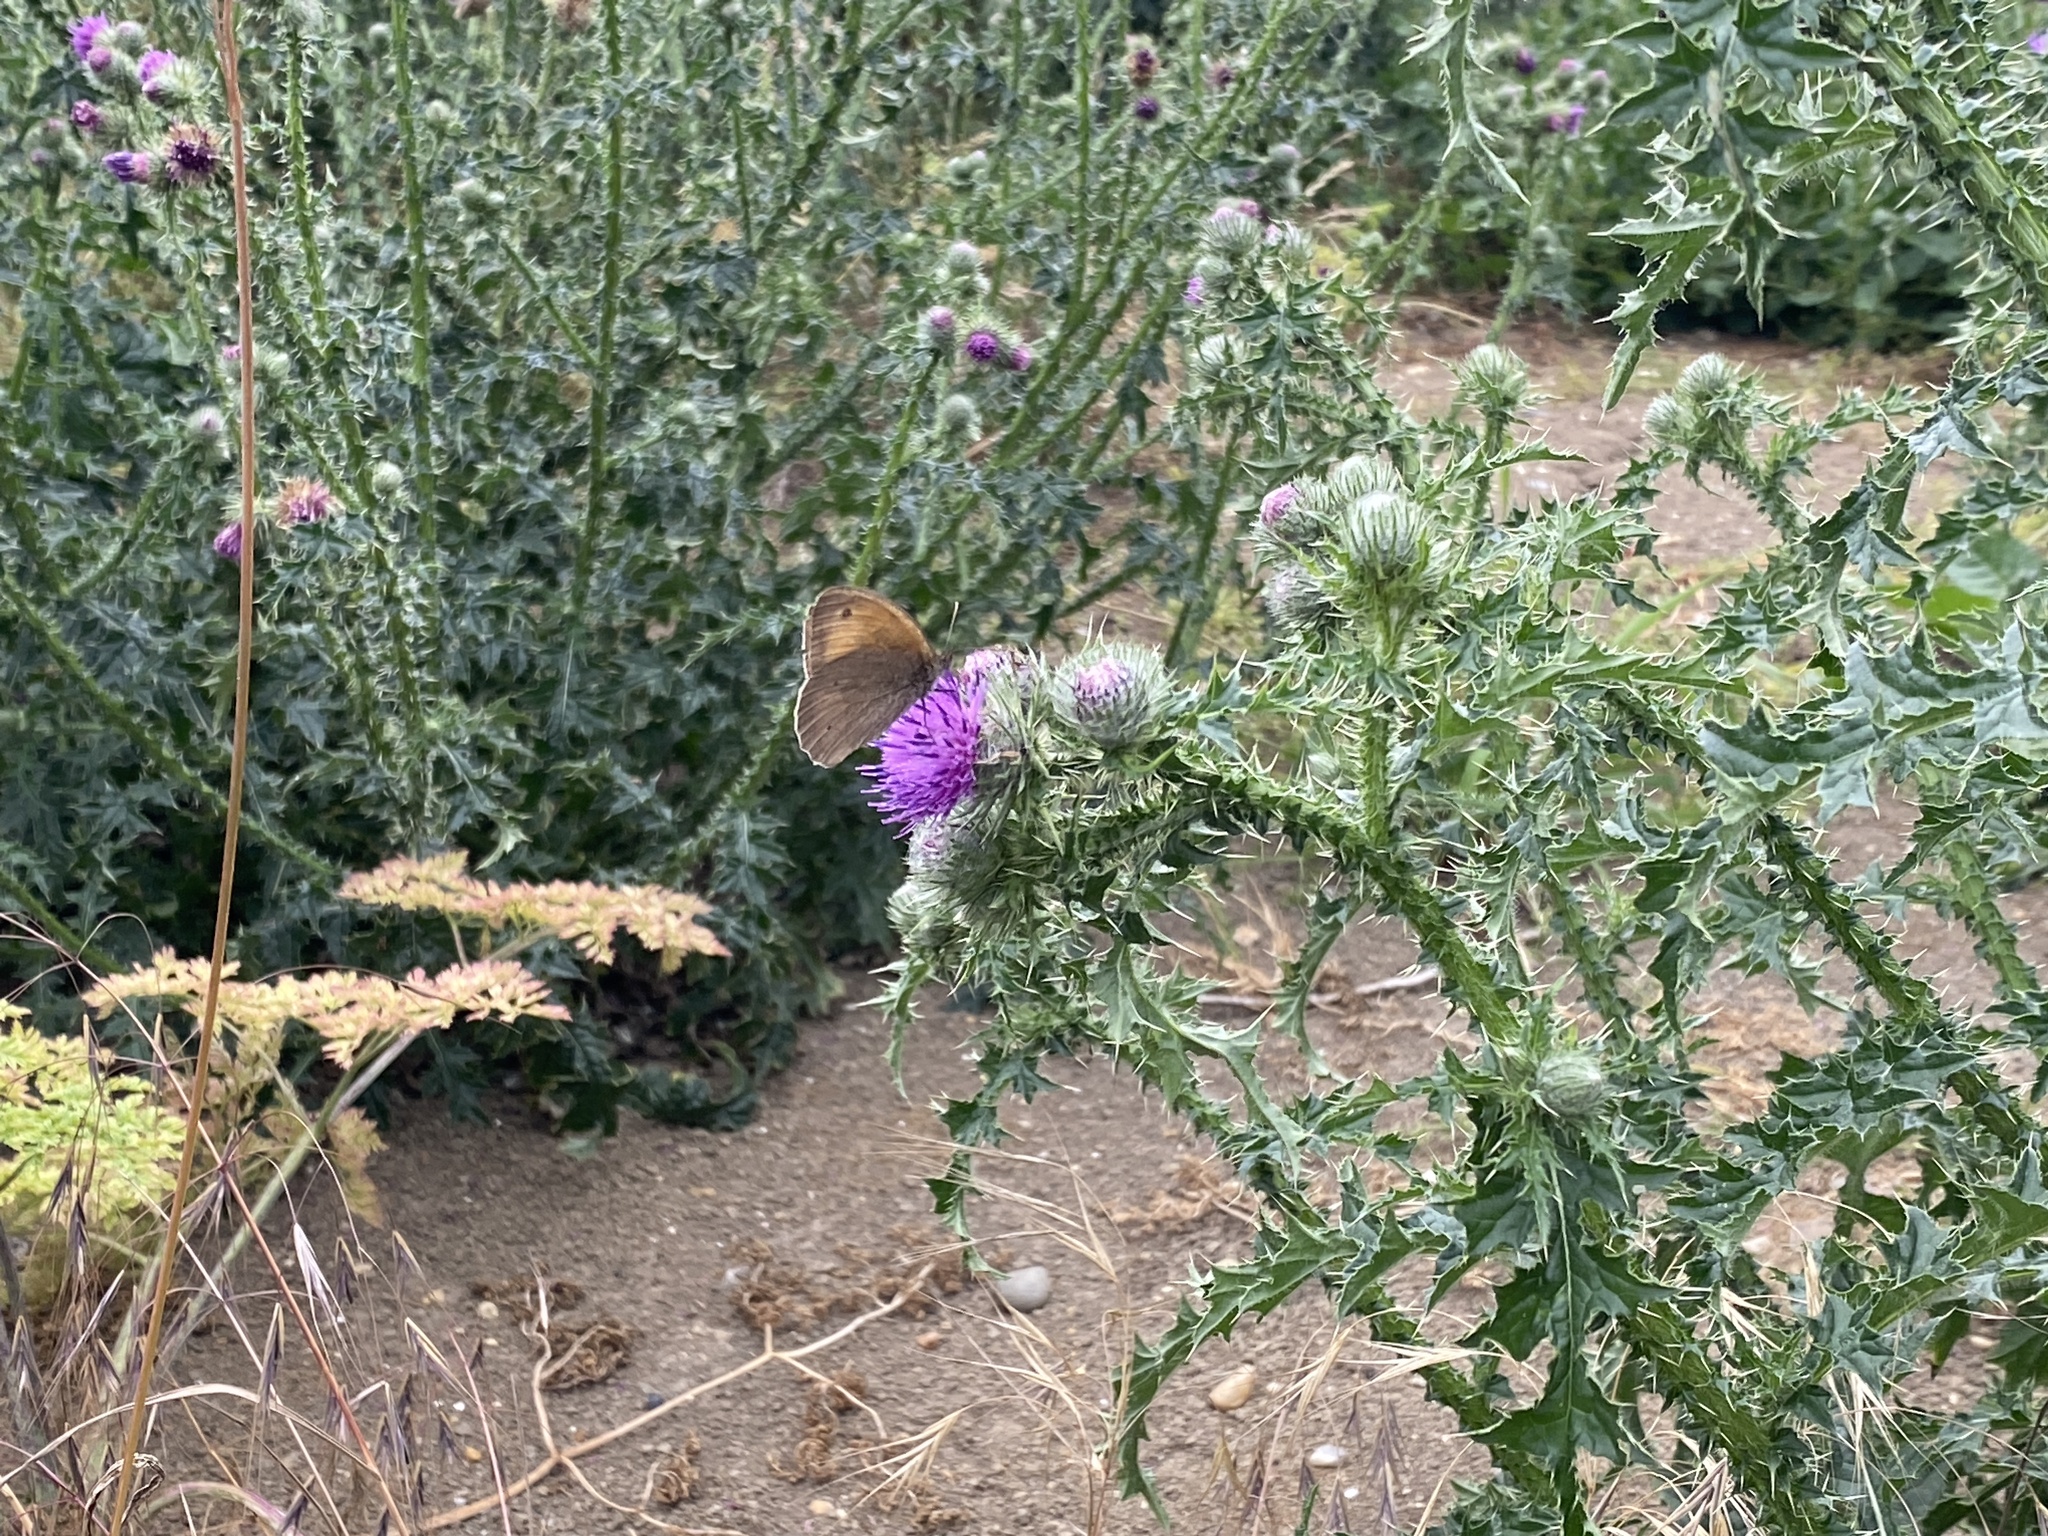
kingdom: Animalia
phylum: Arthropoda
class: Insecta
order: Lepidoptera
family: Nymphalidae
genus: Maniola
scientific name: Maniola jurtina
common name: Meadow brown
